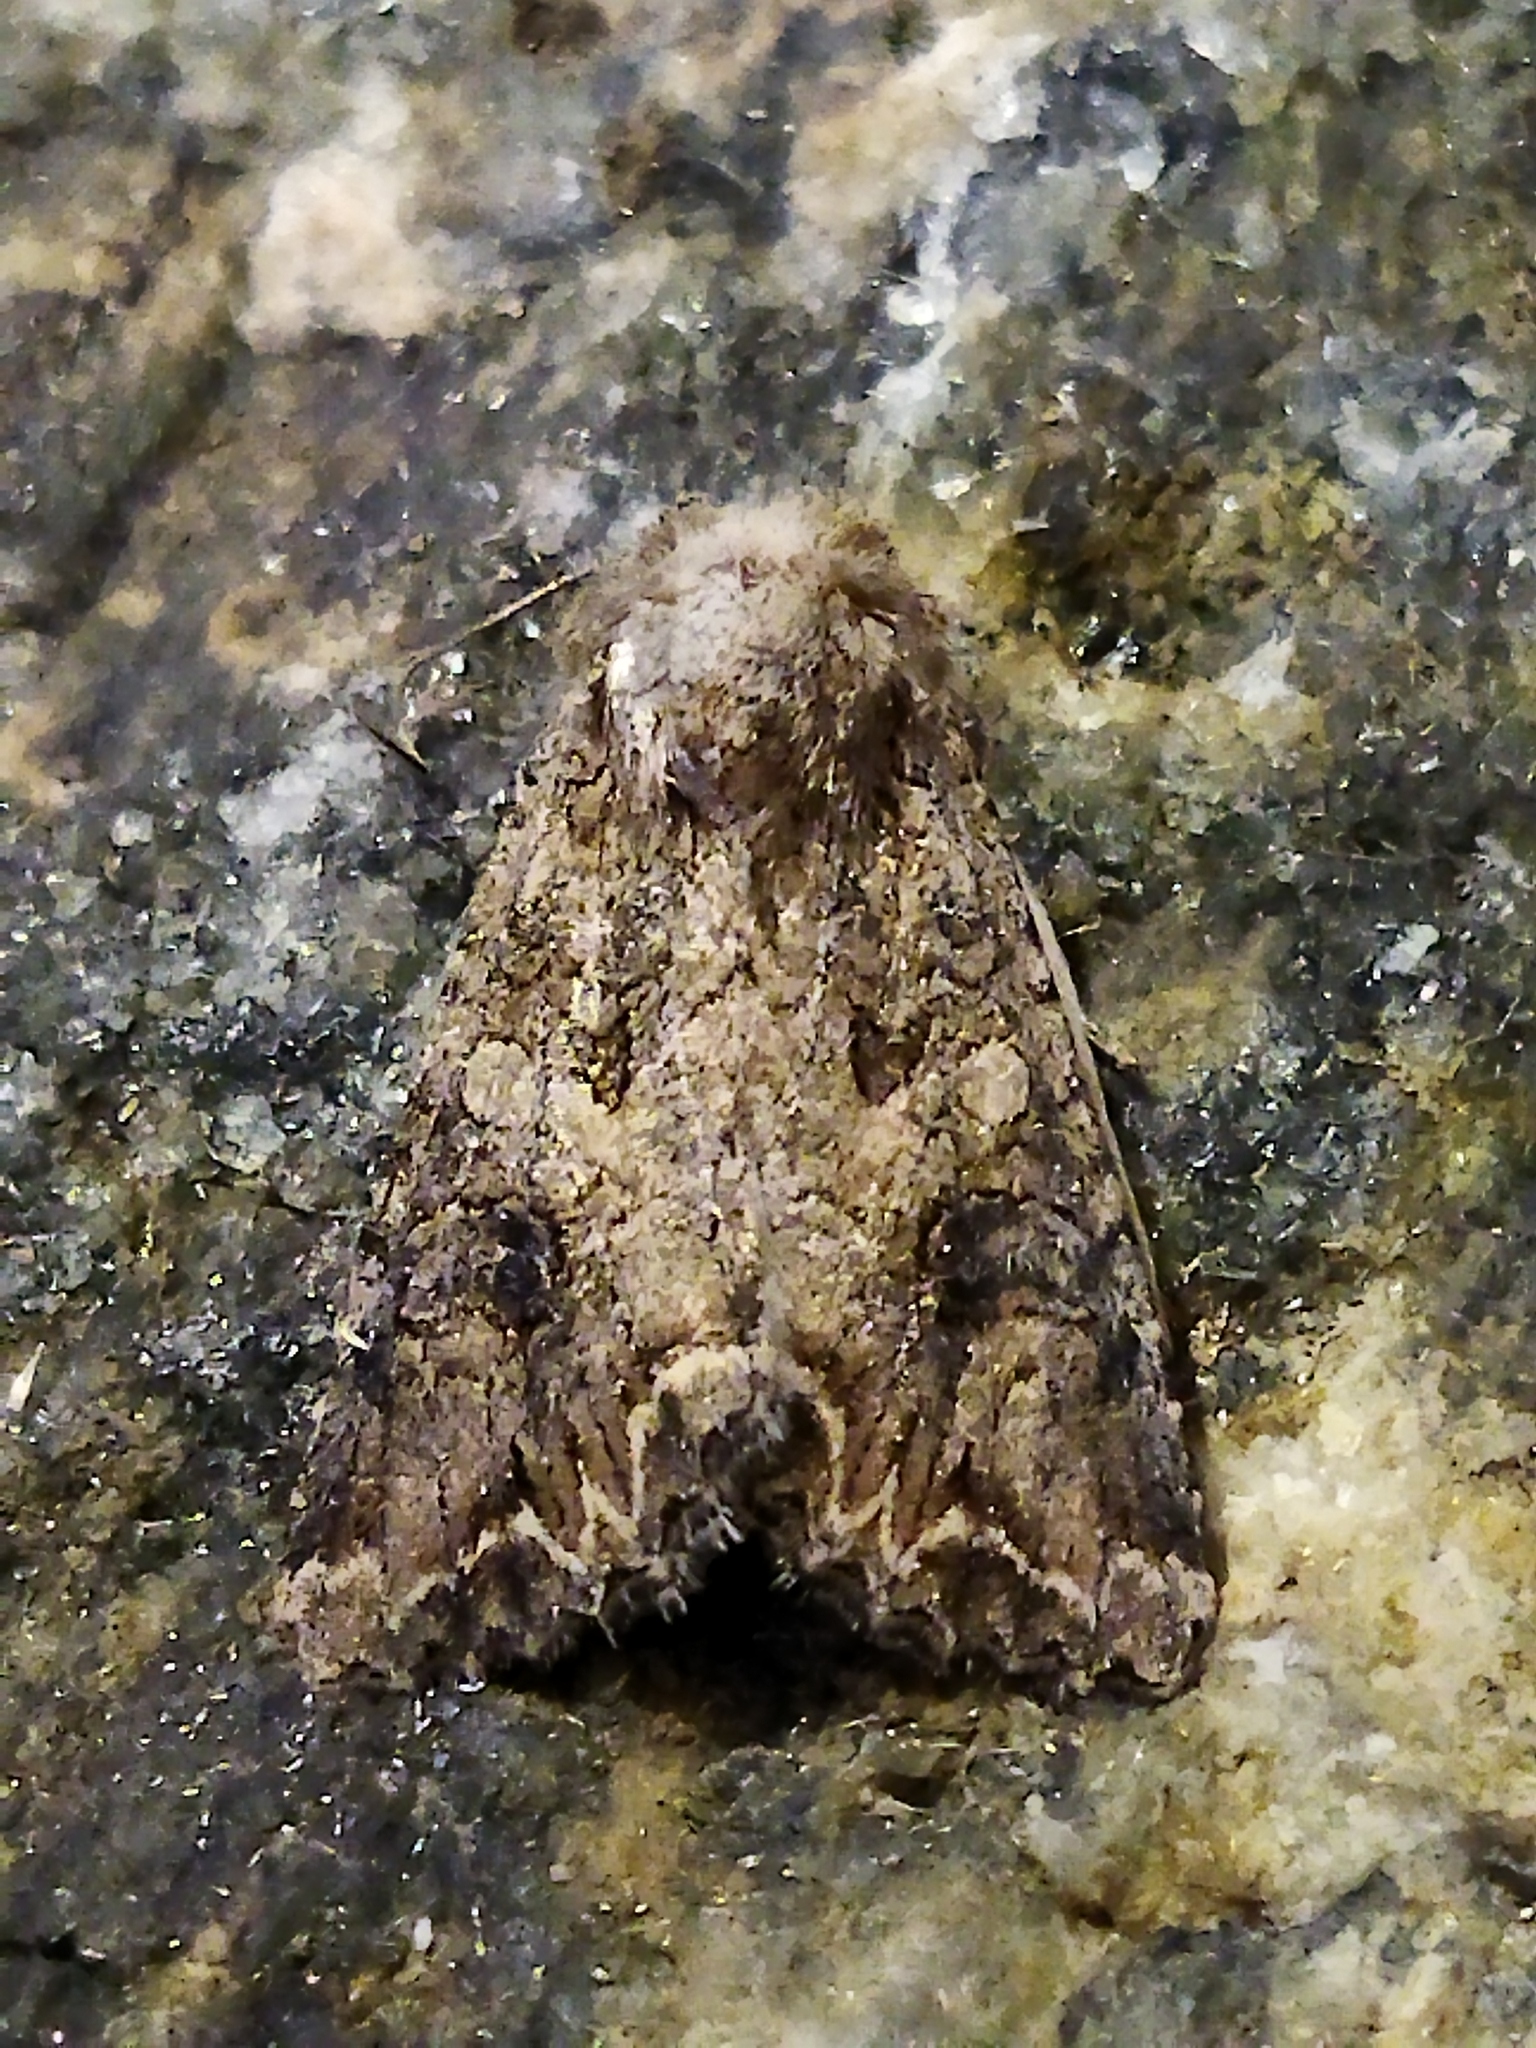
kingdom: Animalia
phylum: Arthropoda
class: Insecta
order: Lepidoptera
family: Noctuidae
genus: Anarta
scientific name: Anarta trifolii
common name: Clover cutworm moth
